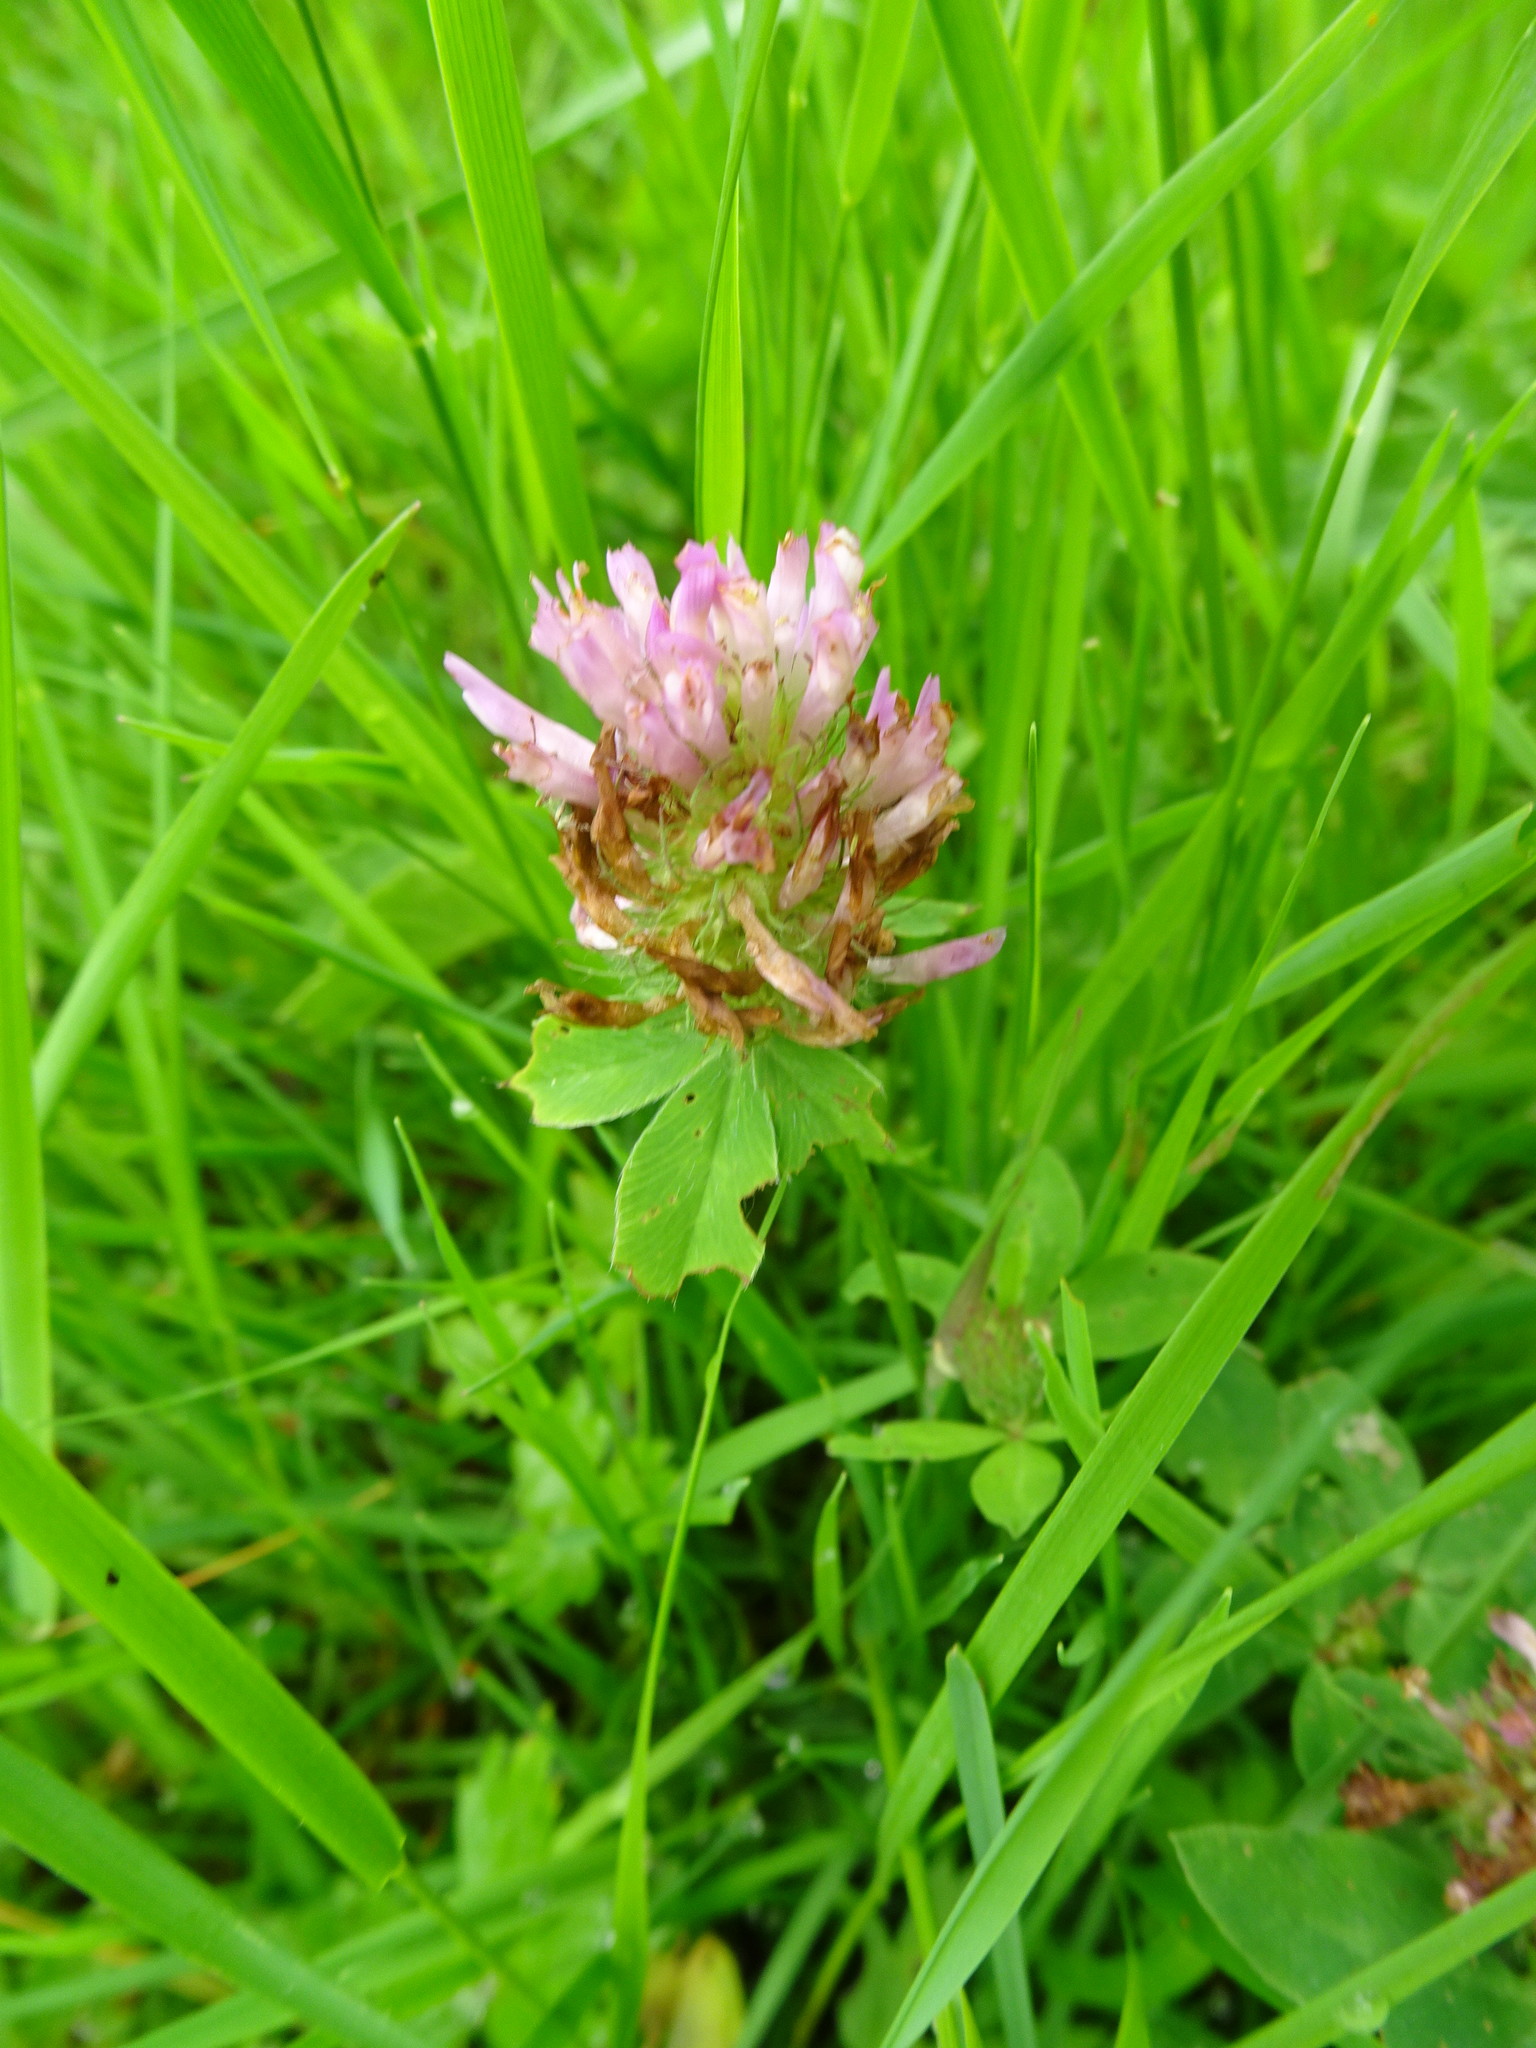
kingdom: Plantae
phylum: Tracheophyta
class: Magnoliopsida
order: Fabales
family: Fabaceae
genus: Trifolium
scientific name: Trifolium pratense
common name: Red clover
